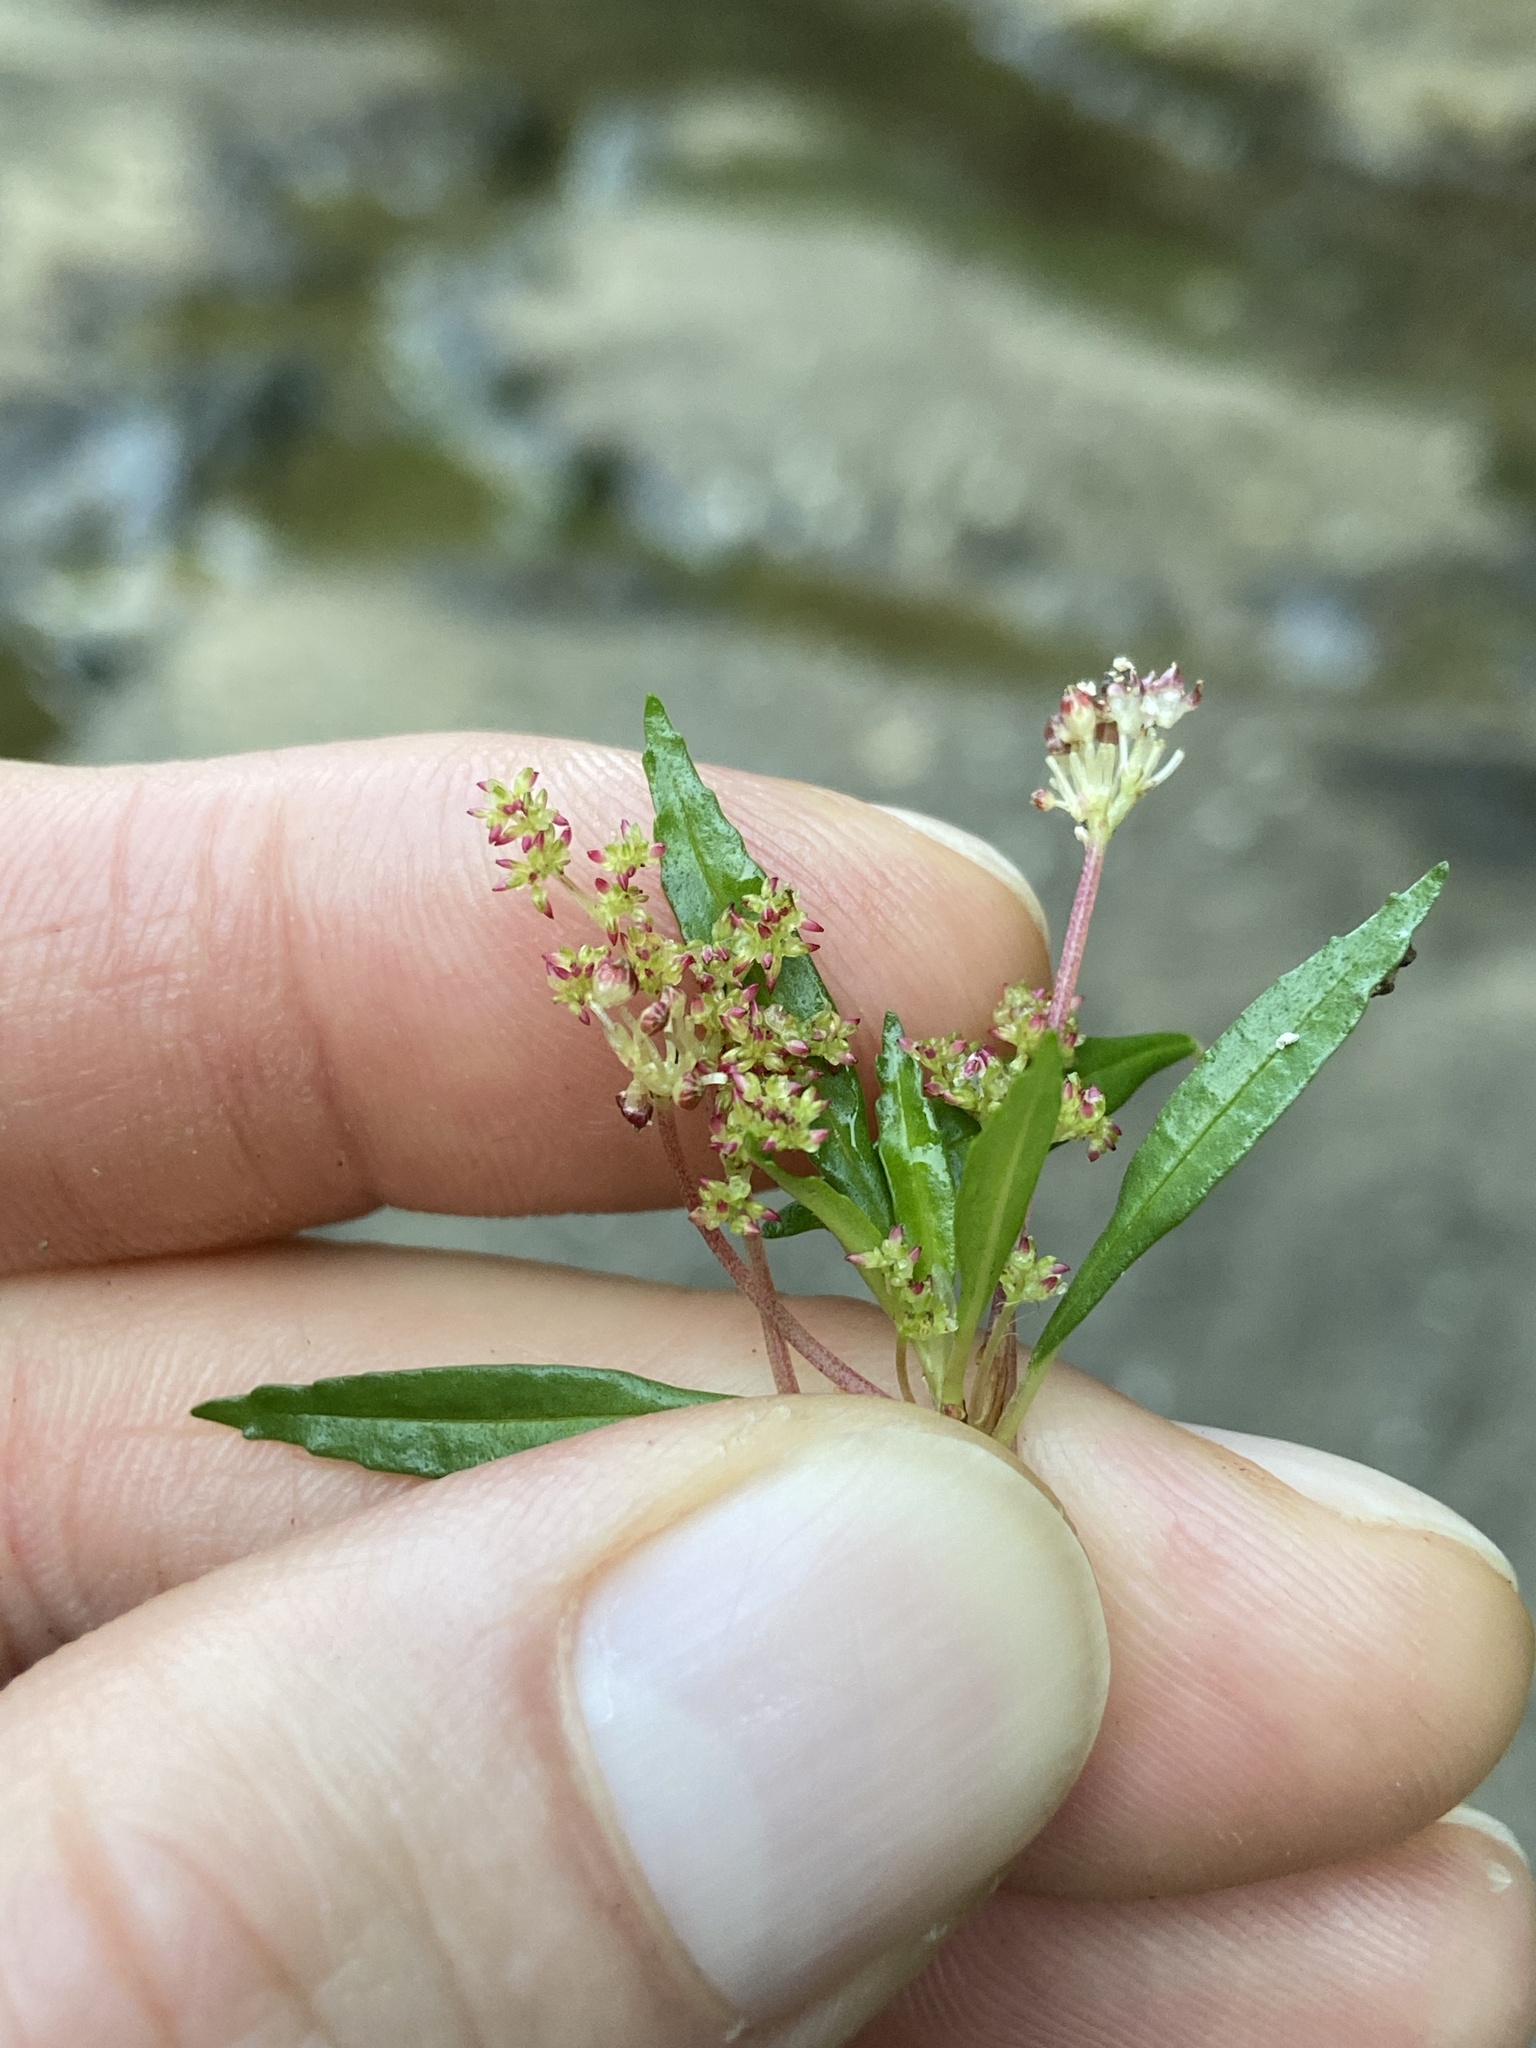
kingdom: Plantae
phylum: Tracheophyta
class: Magnoliopsida
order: Rosales
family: Urticaceae
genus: Pilea
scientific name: Pilea semidentata
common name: Cliffside clearweed
